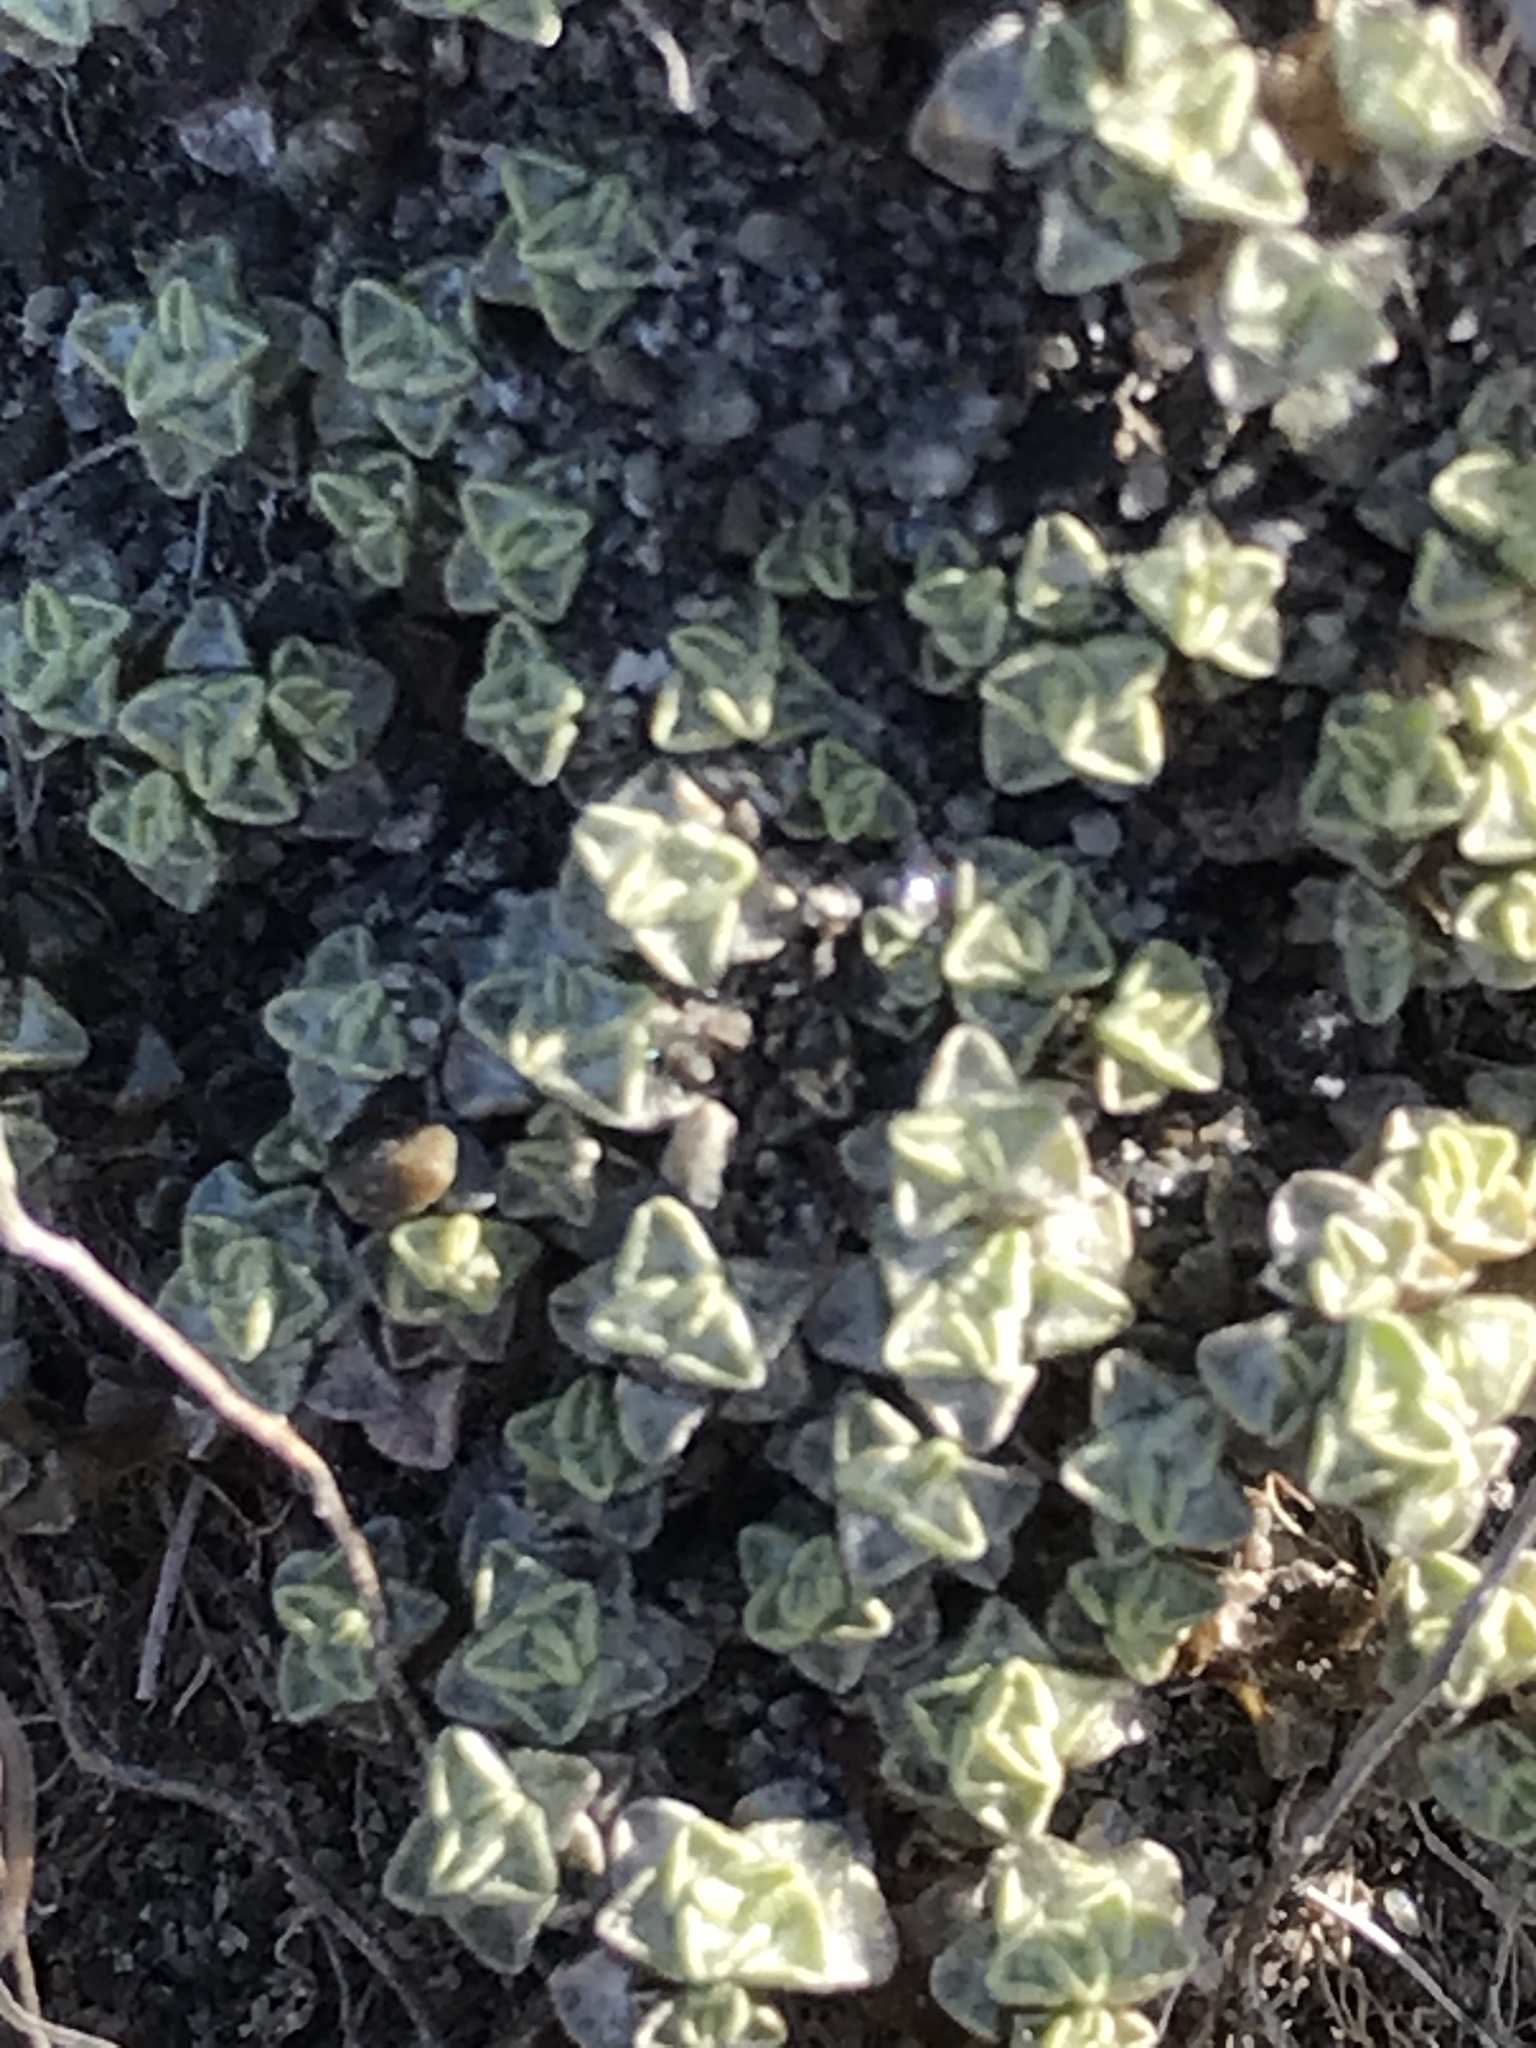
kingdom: Plantae
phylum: Tracheophyta
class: Magnoliopsida
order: Asterales
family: Asteraceae
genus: Raoulia
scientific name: Raoulia parkii
